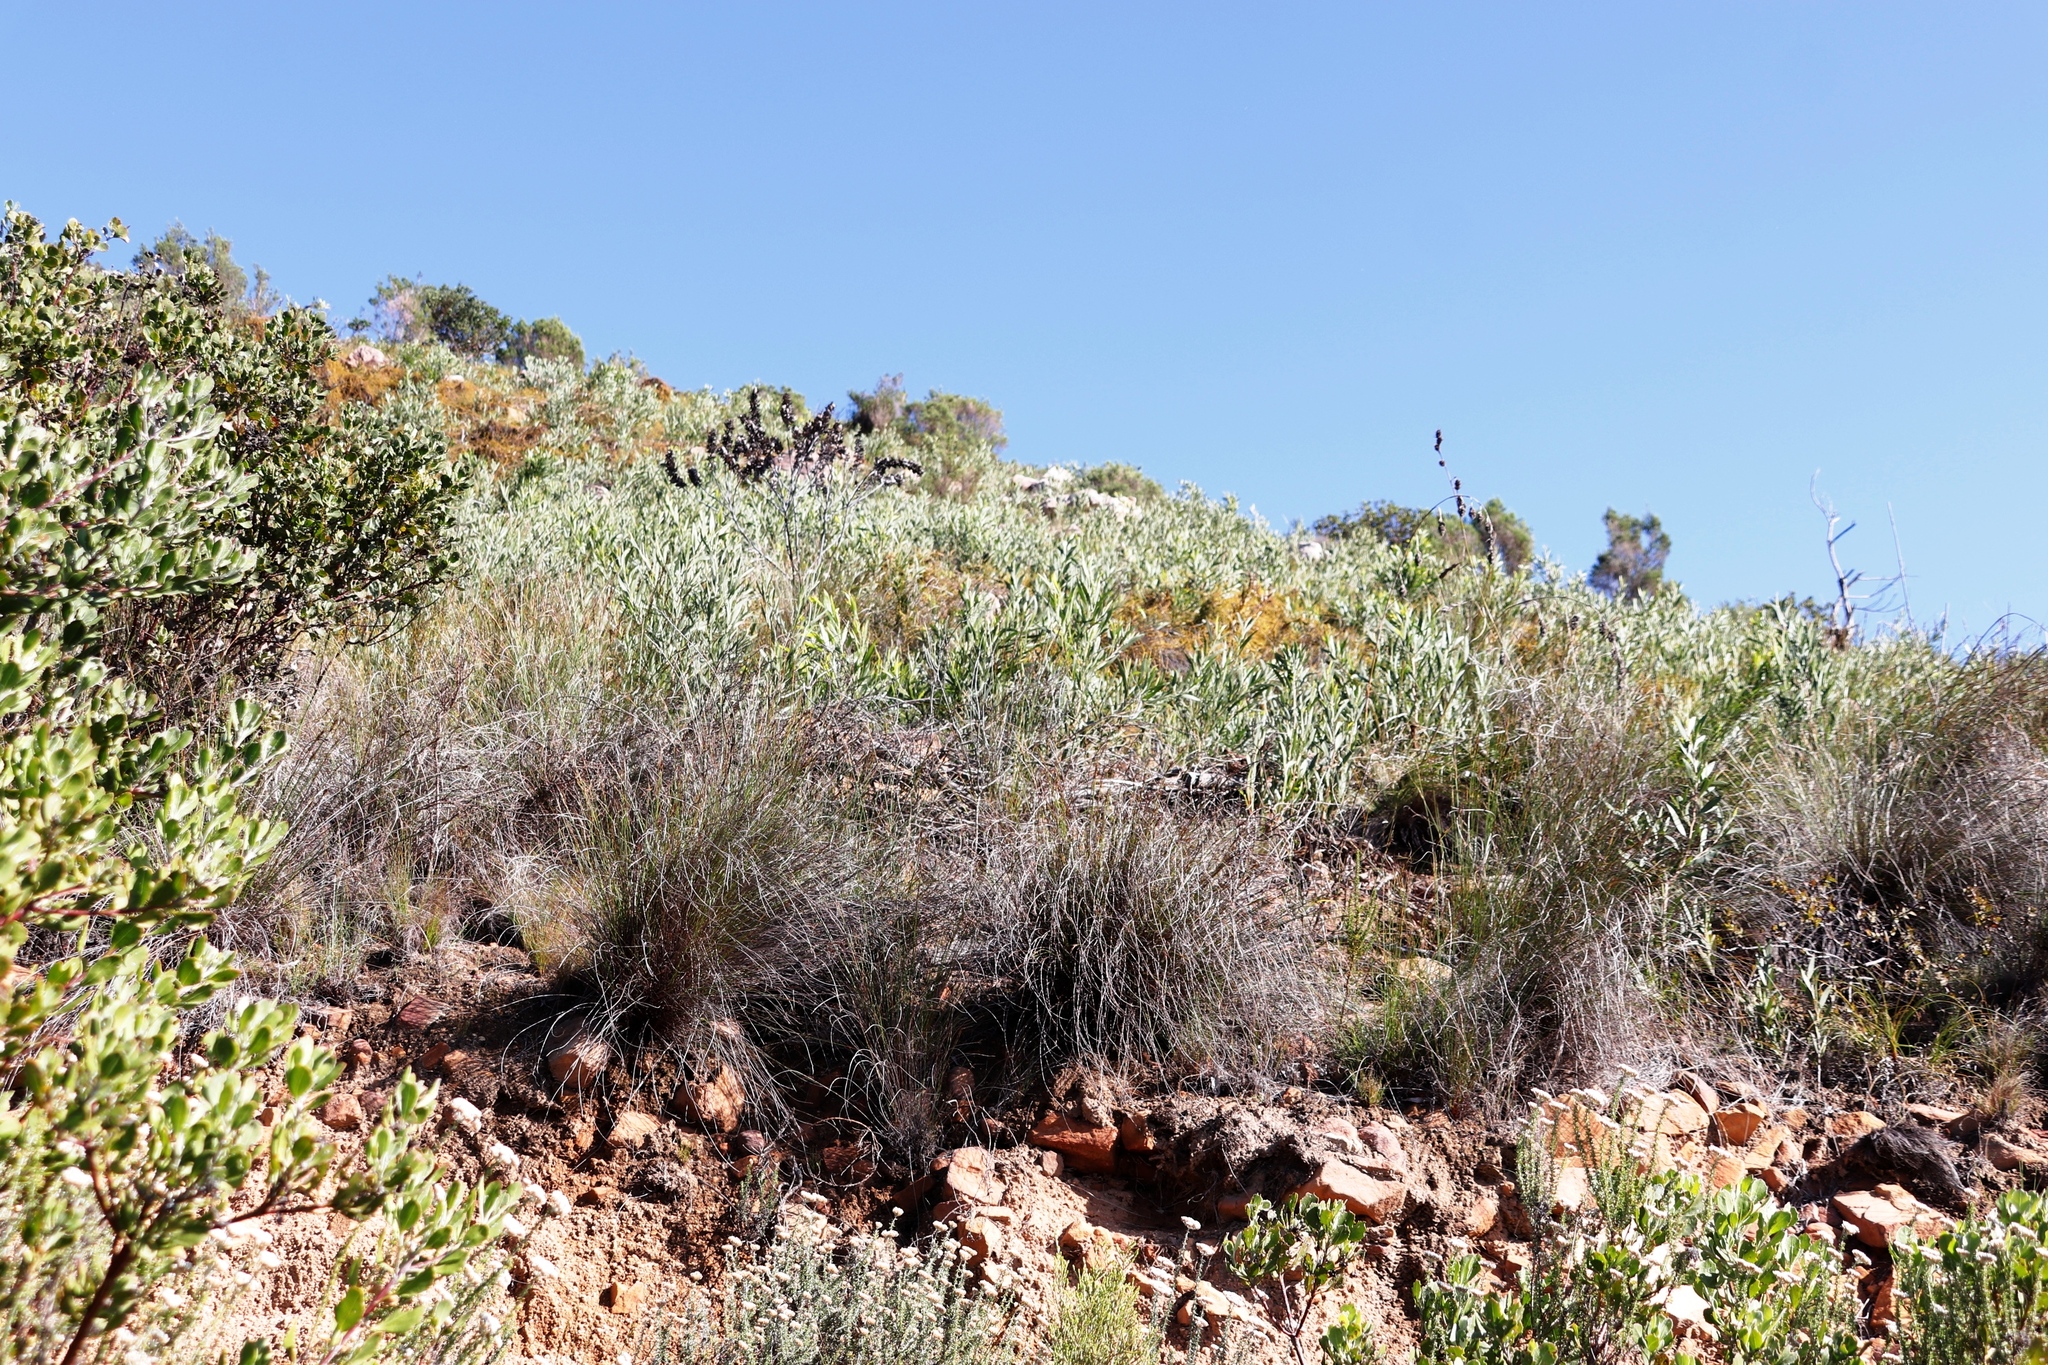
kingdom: Plantae
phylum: Tracheophyta
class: Magnoliopsida
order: Fabales
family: Fabaceae
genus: Acacia
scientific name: Acacia longifolia
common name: Sydney golden wattle
